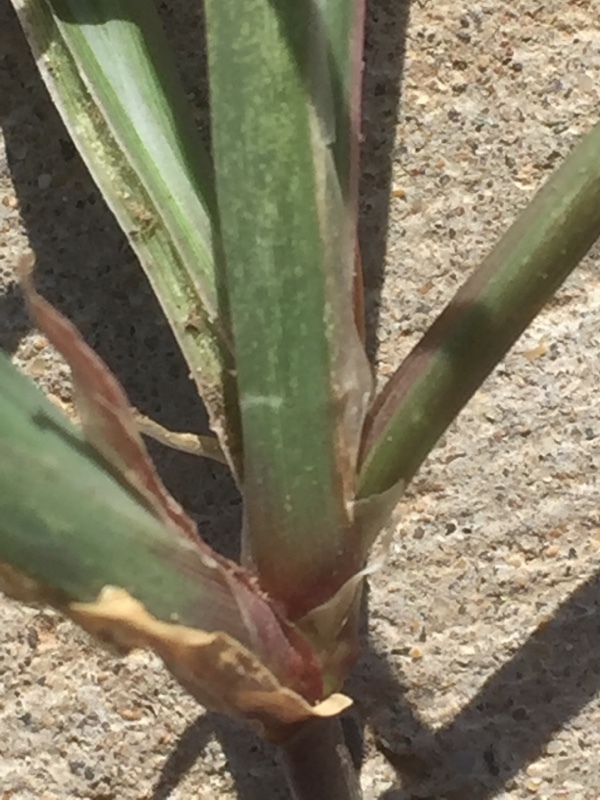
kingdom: Plantae
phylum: Tracheophyta
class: Liliopsida
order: Poales
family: Poaceae
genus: Chloris
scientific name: Chloris barbata
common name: Swollen fingergrass
